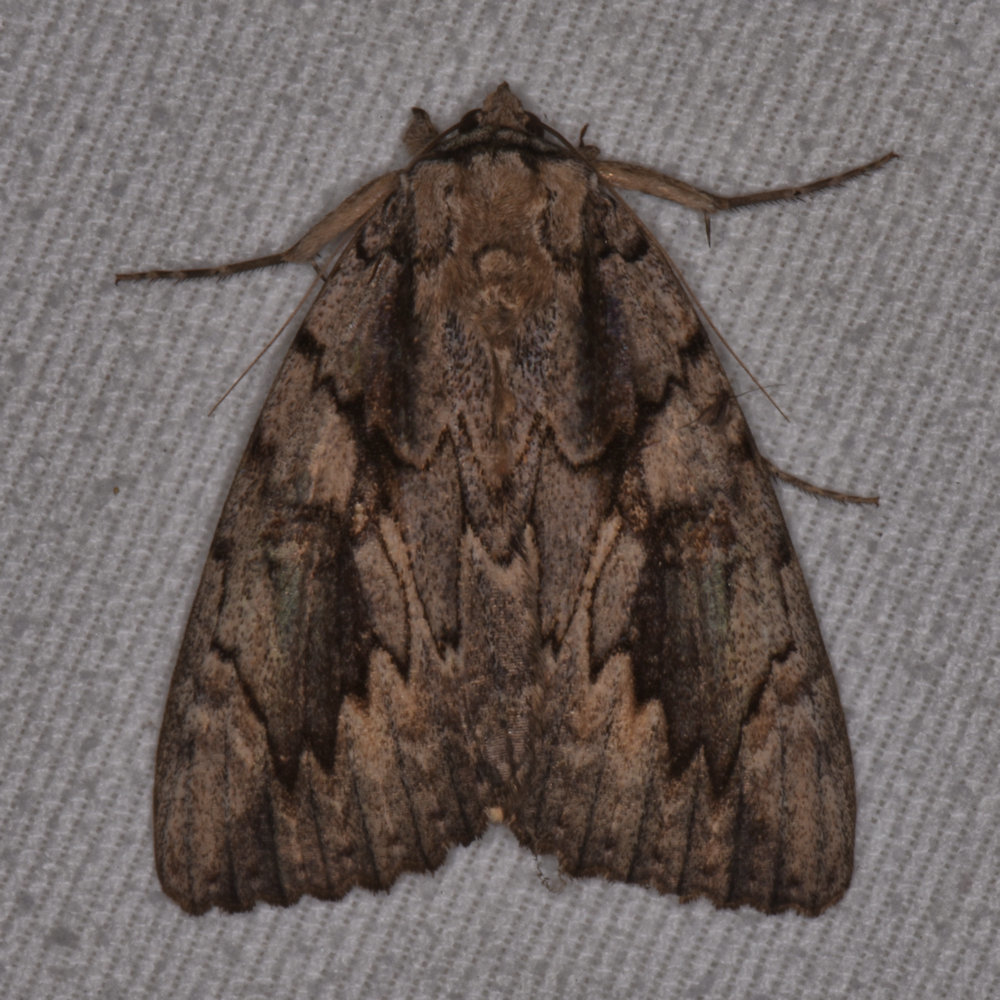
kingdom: Animalia
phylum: Arthropoda
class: Insecta
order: Lepidoptera
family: Erebidae
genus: Catocala
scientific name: Catocala amatrix
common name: Sweetheart underwing
